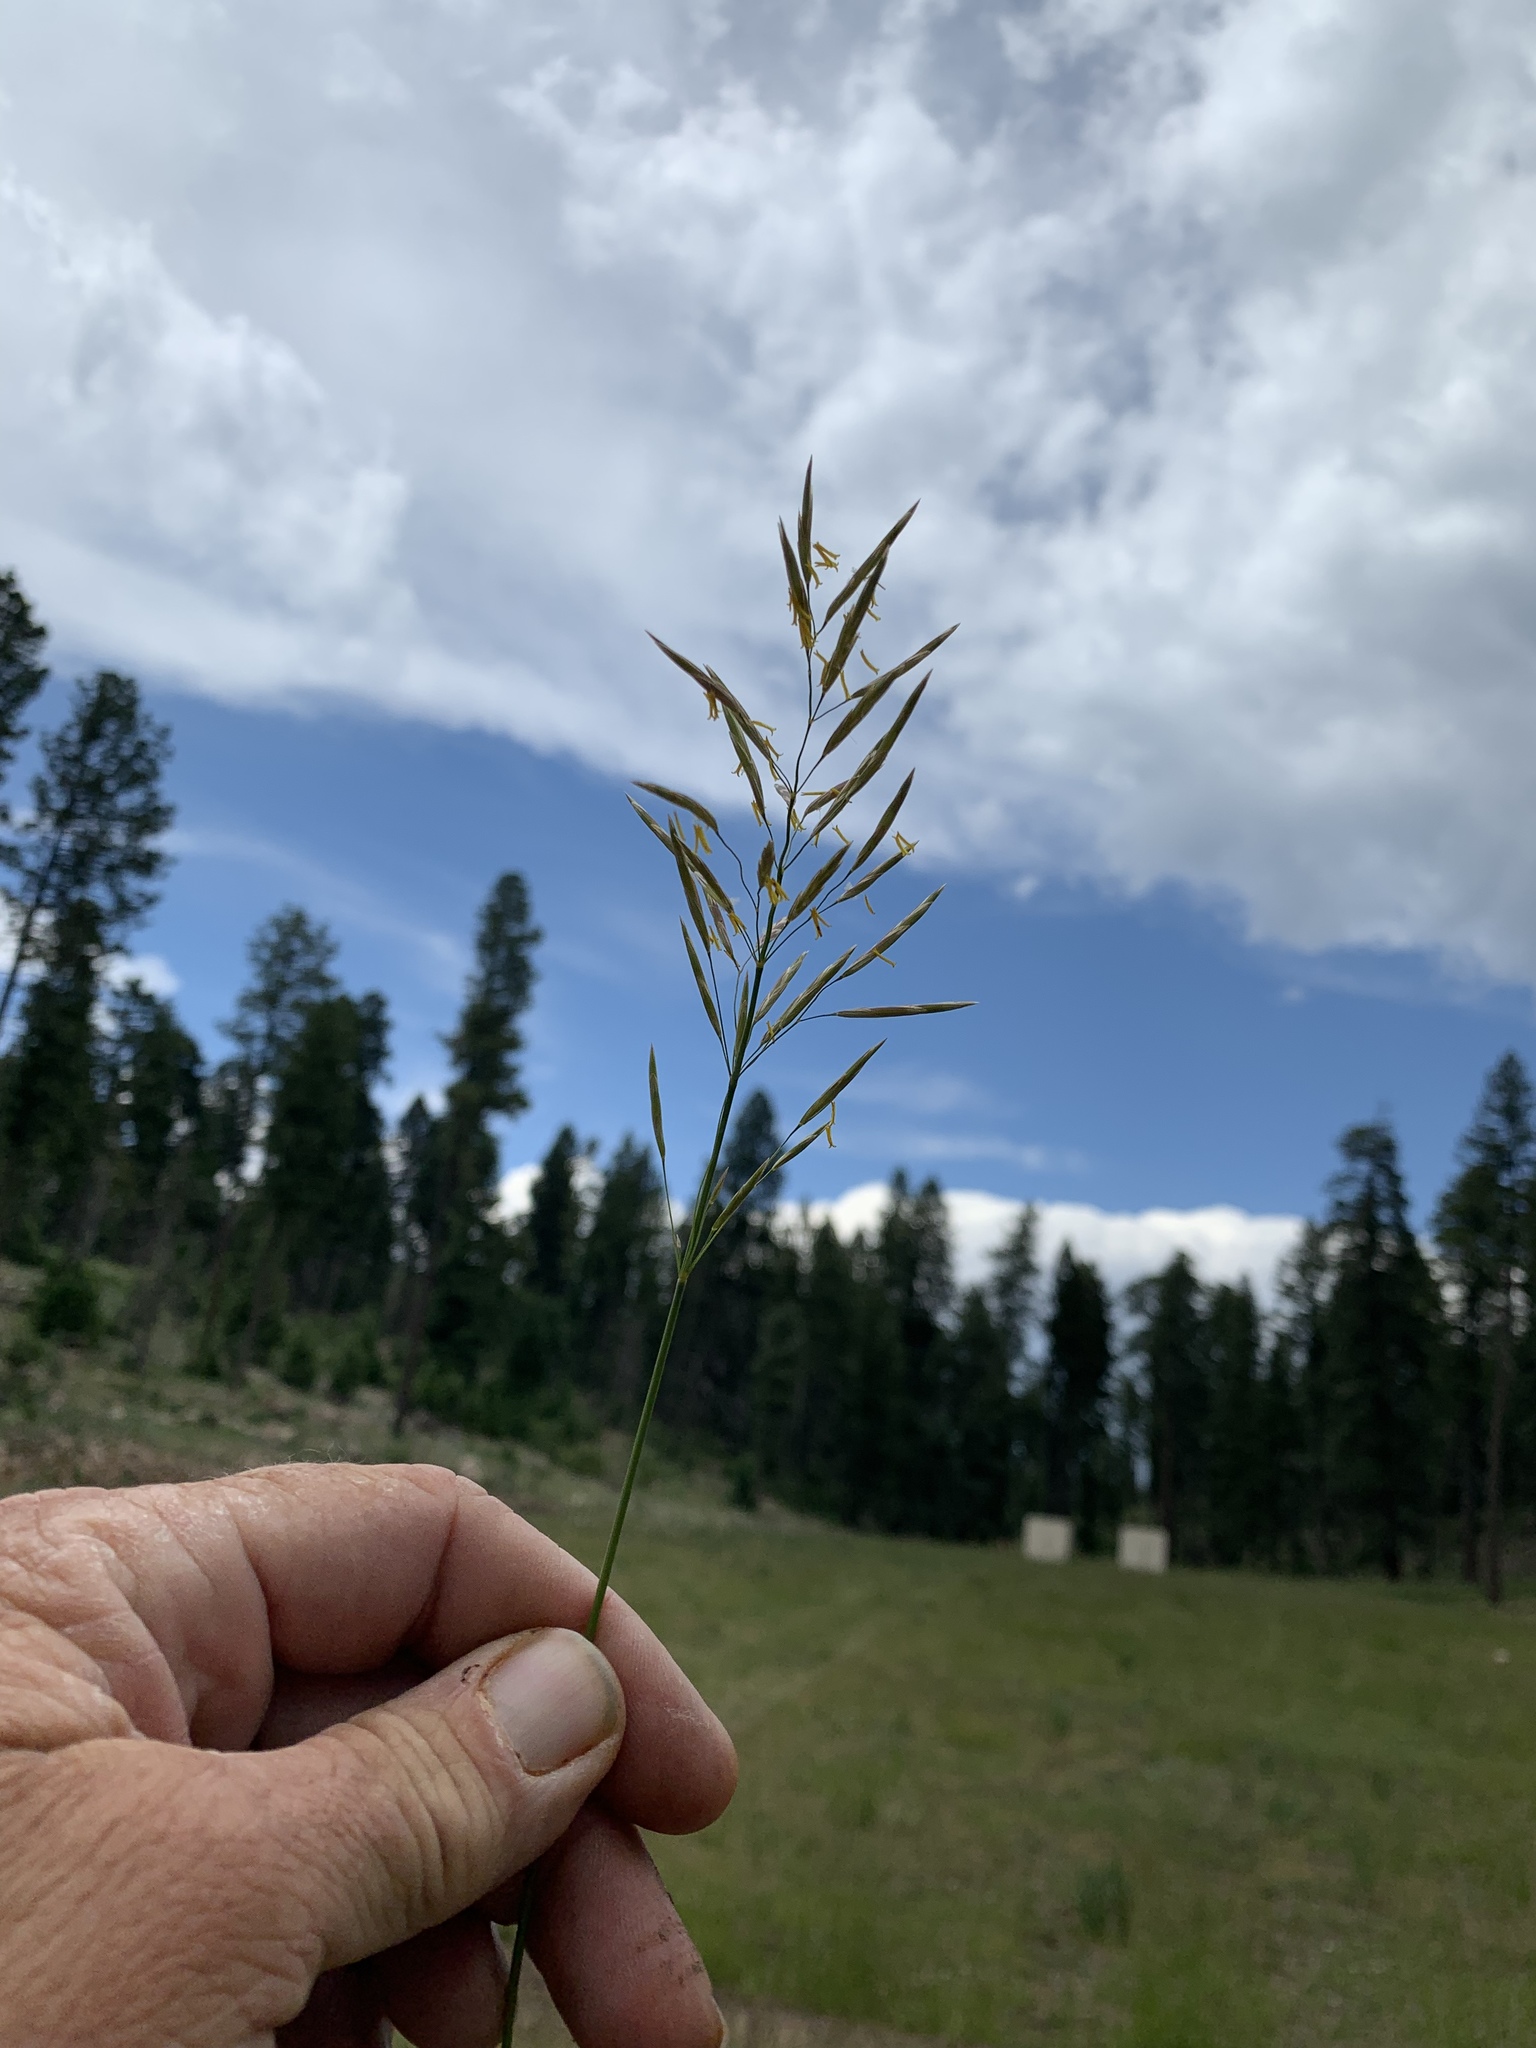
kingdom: Plantae
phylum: Tracheophyta
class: Liliopsida
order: Poales
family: Poaceae
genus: Bromus
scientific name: Bromus inermis
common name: Smooth brome
